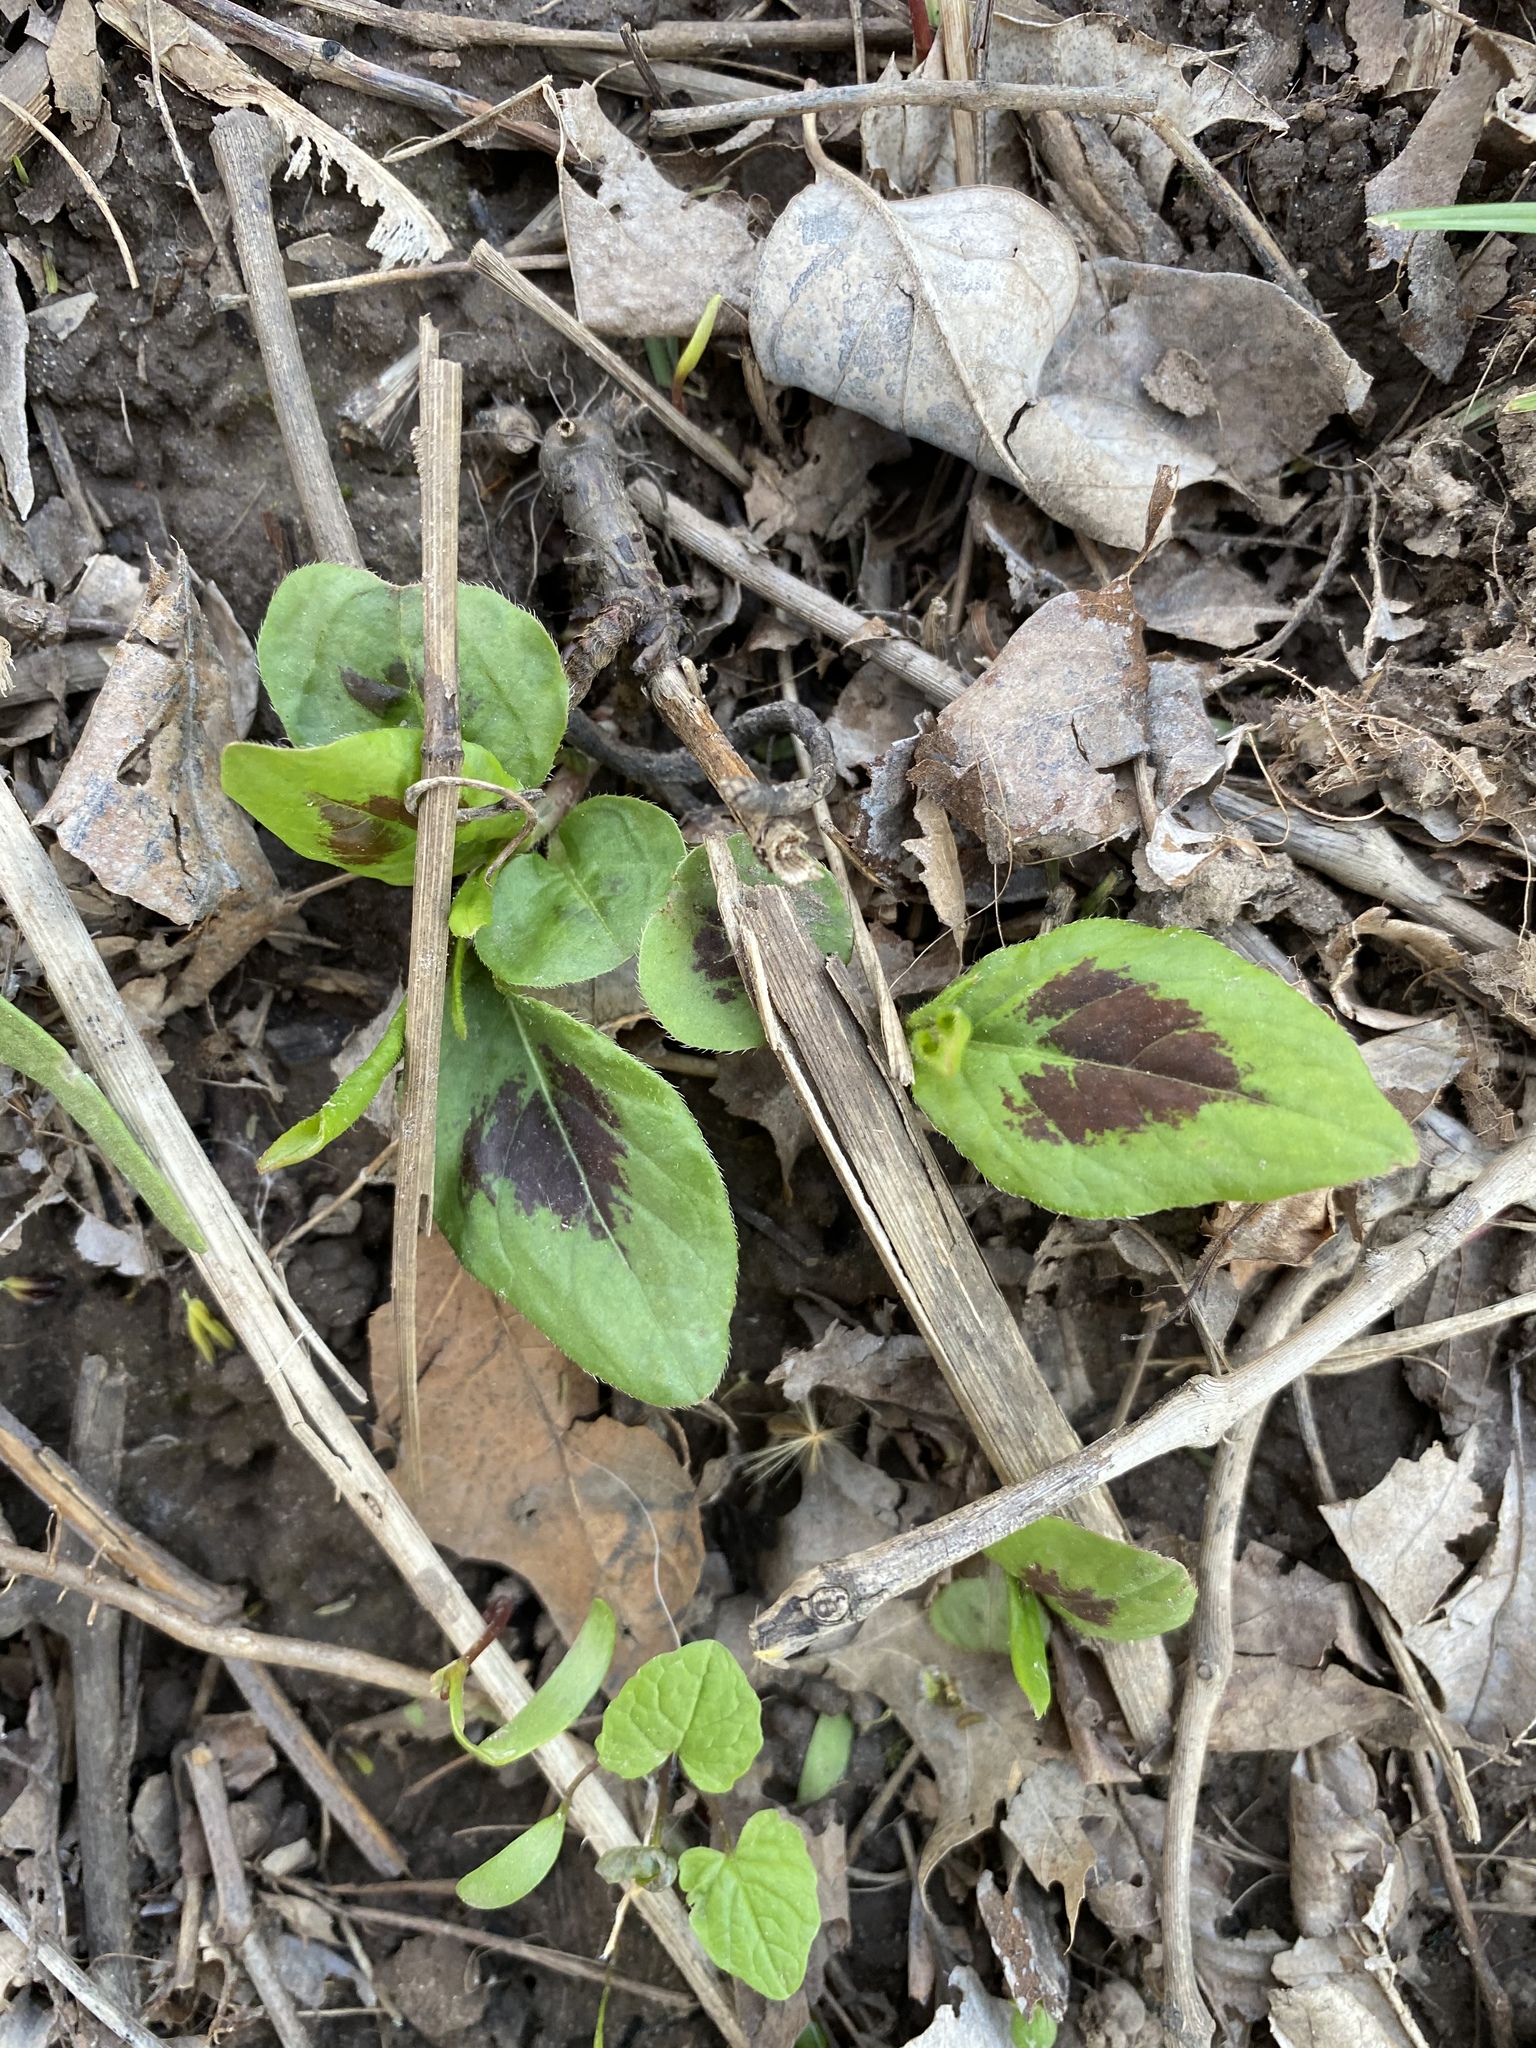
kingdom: Plantae
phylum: Tracheophyta
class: Magnoliopsida
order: Caryophyllales
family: Polygonaceae
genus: Persicaria
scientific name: Persicaria virginiana
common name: Jumpseed
